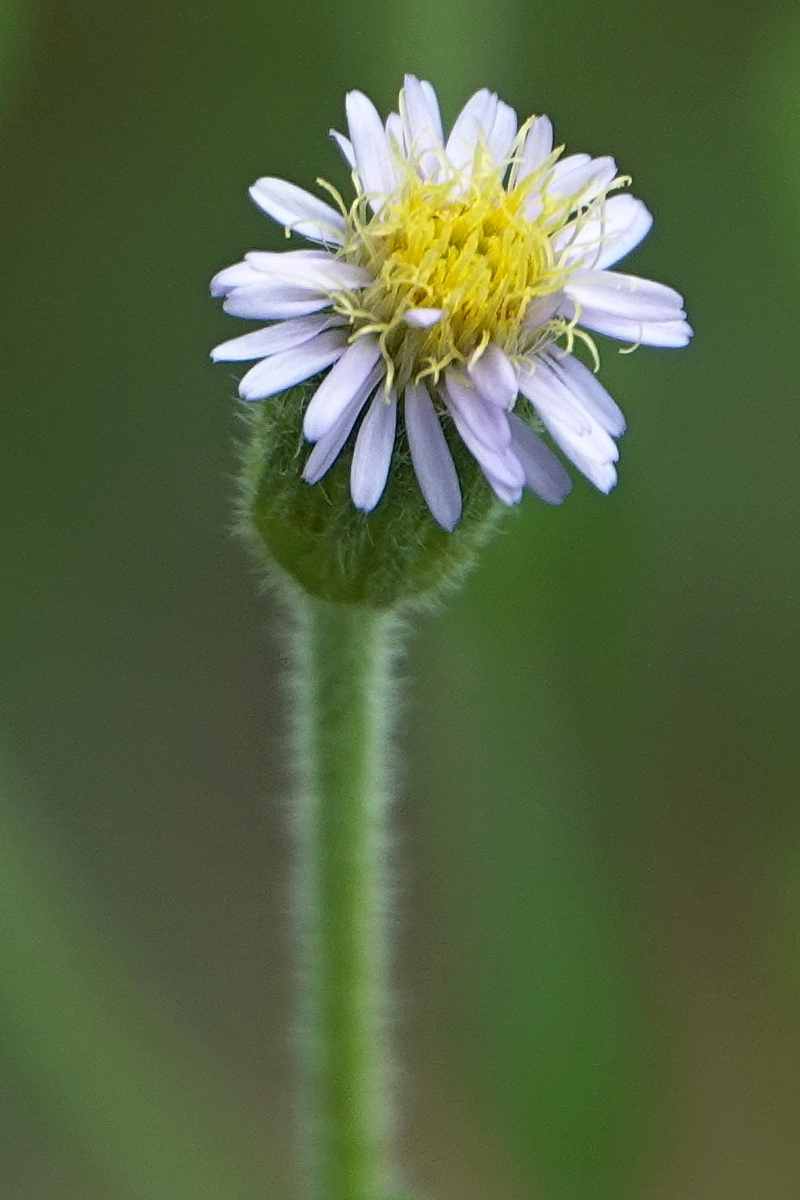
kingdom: Plantae
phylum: Tracheophyta
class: Magnoliopsida
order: Asterales
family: Asteraceae
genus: Vittadinia
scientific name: Vittadinia cuneata
